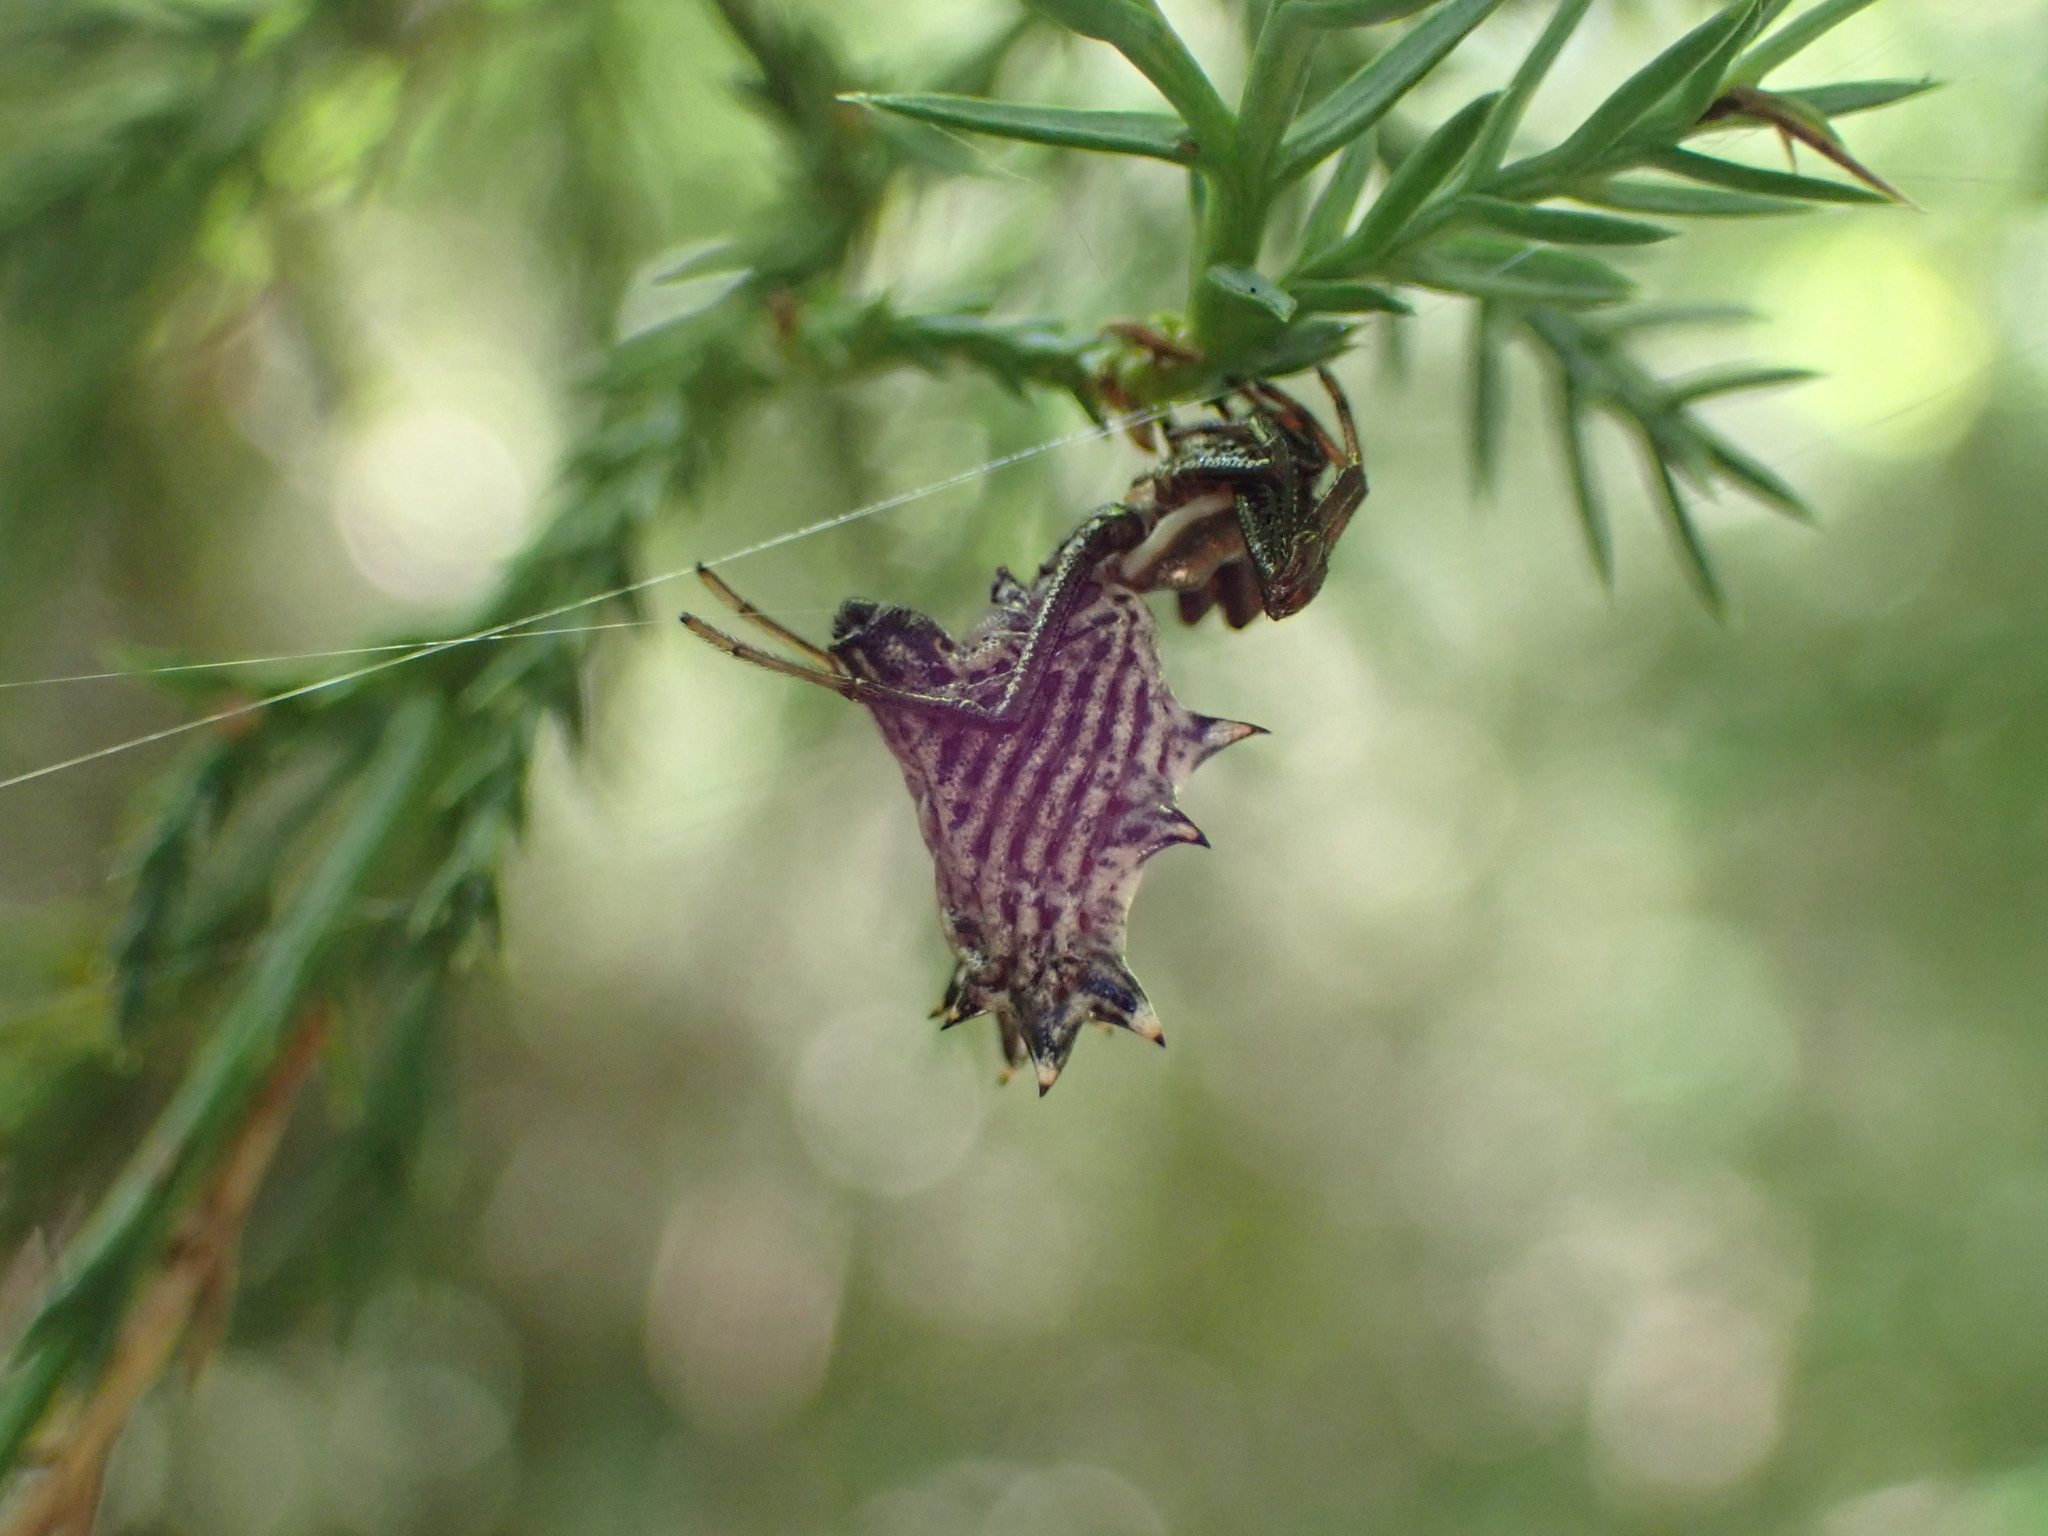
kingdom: Animalia
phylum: Arthropoda
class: Arachnida
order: Araneae
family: Araneidae
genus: Micrathena
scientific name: Micrathena gracilis
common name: Orb weavers
